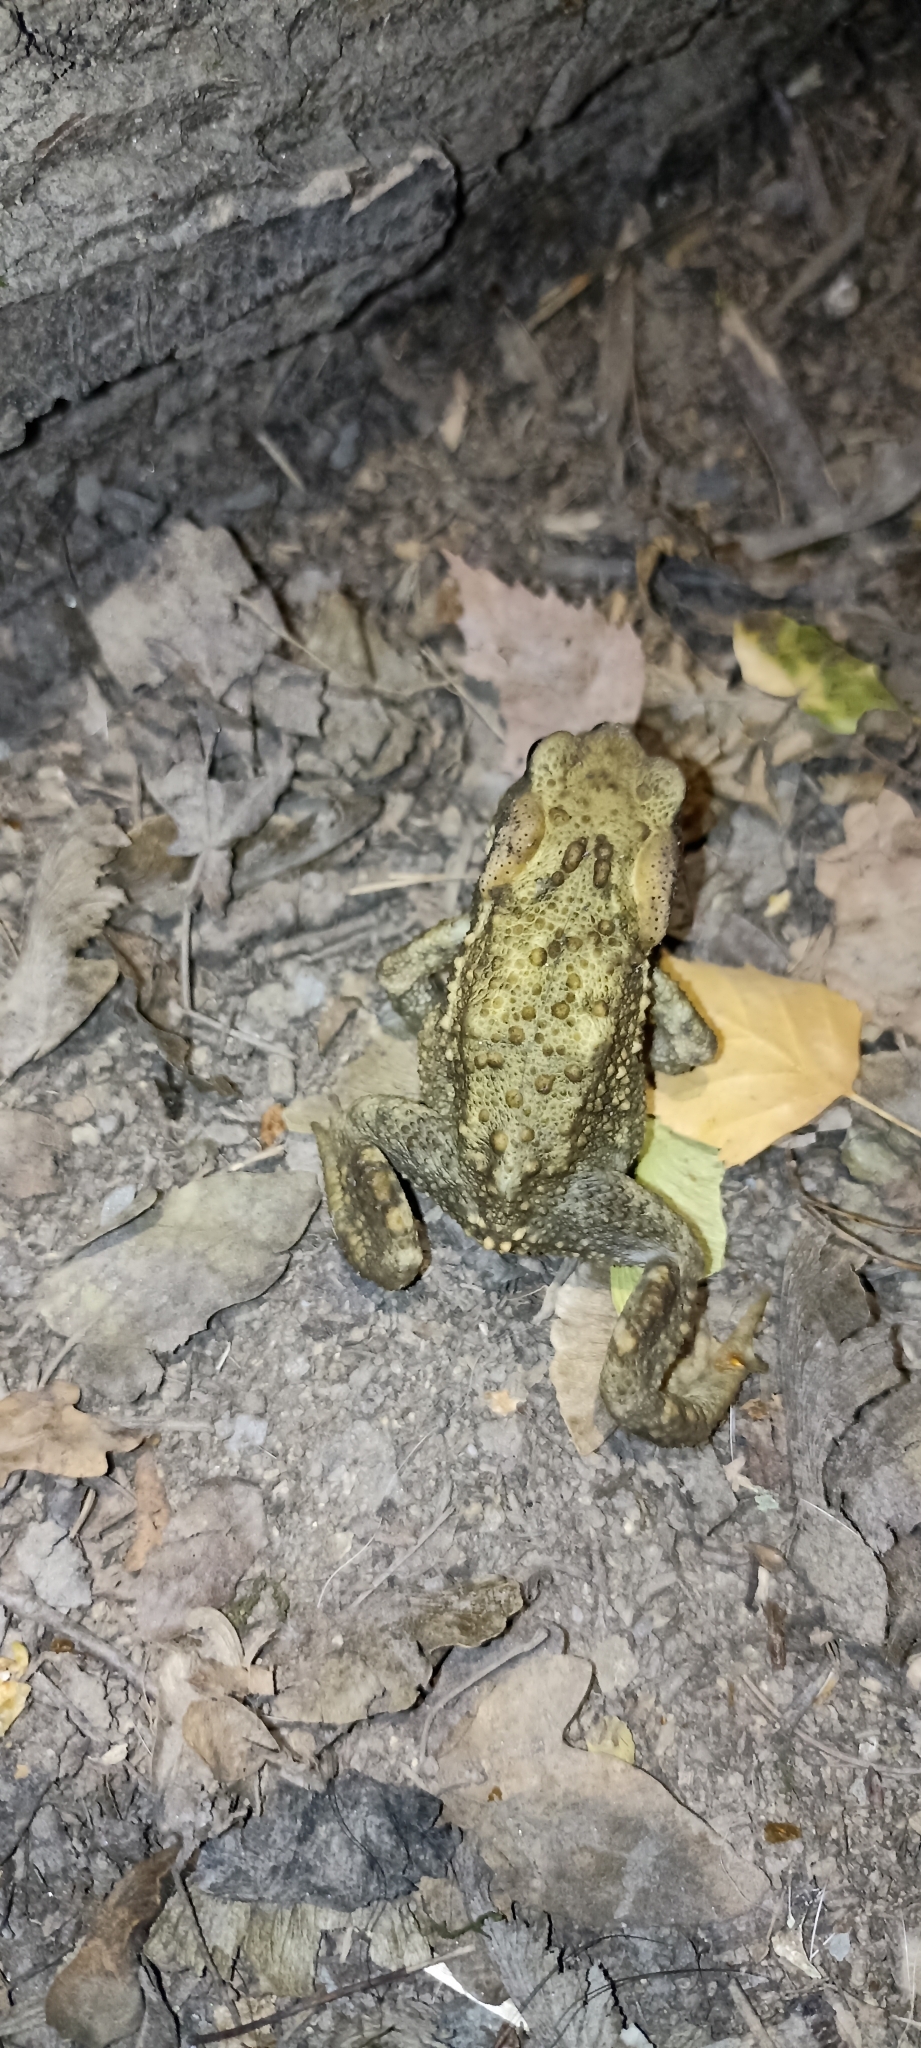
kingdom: Animalia
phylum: Chordata
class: Amphibia
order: Anura
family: Bufonidae
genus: Bufo
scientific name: Bufo spinosus
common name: Western common toad
